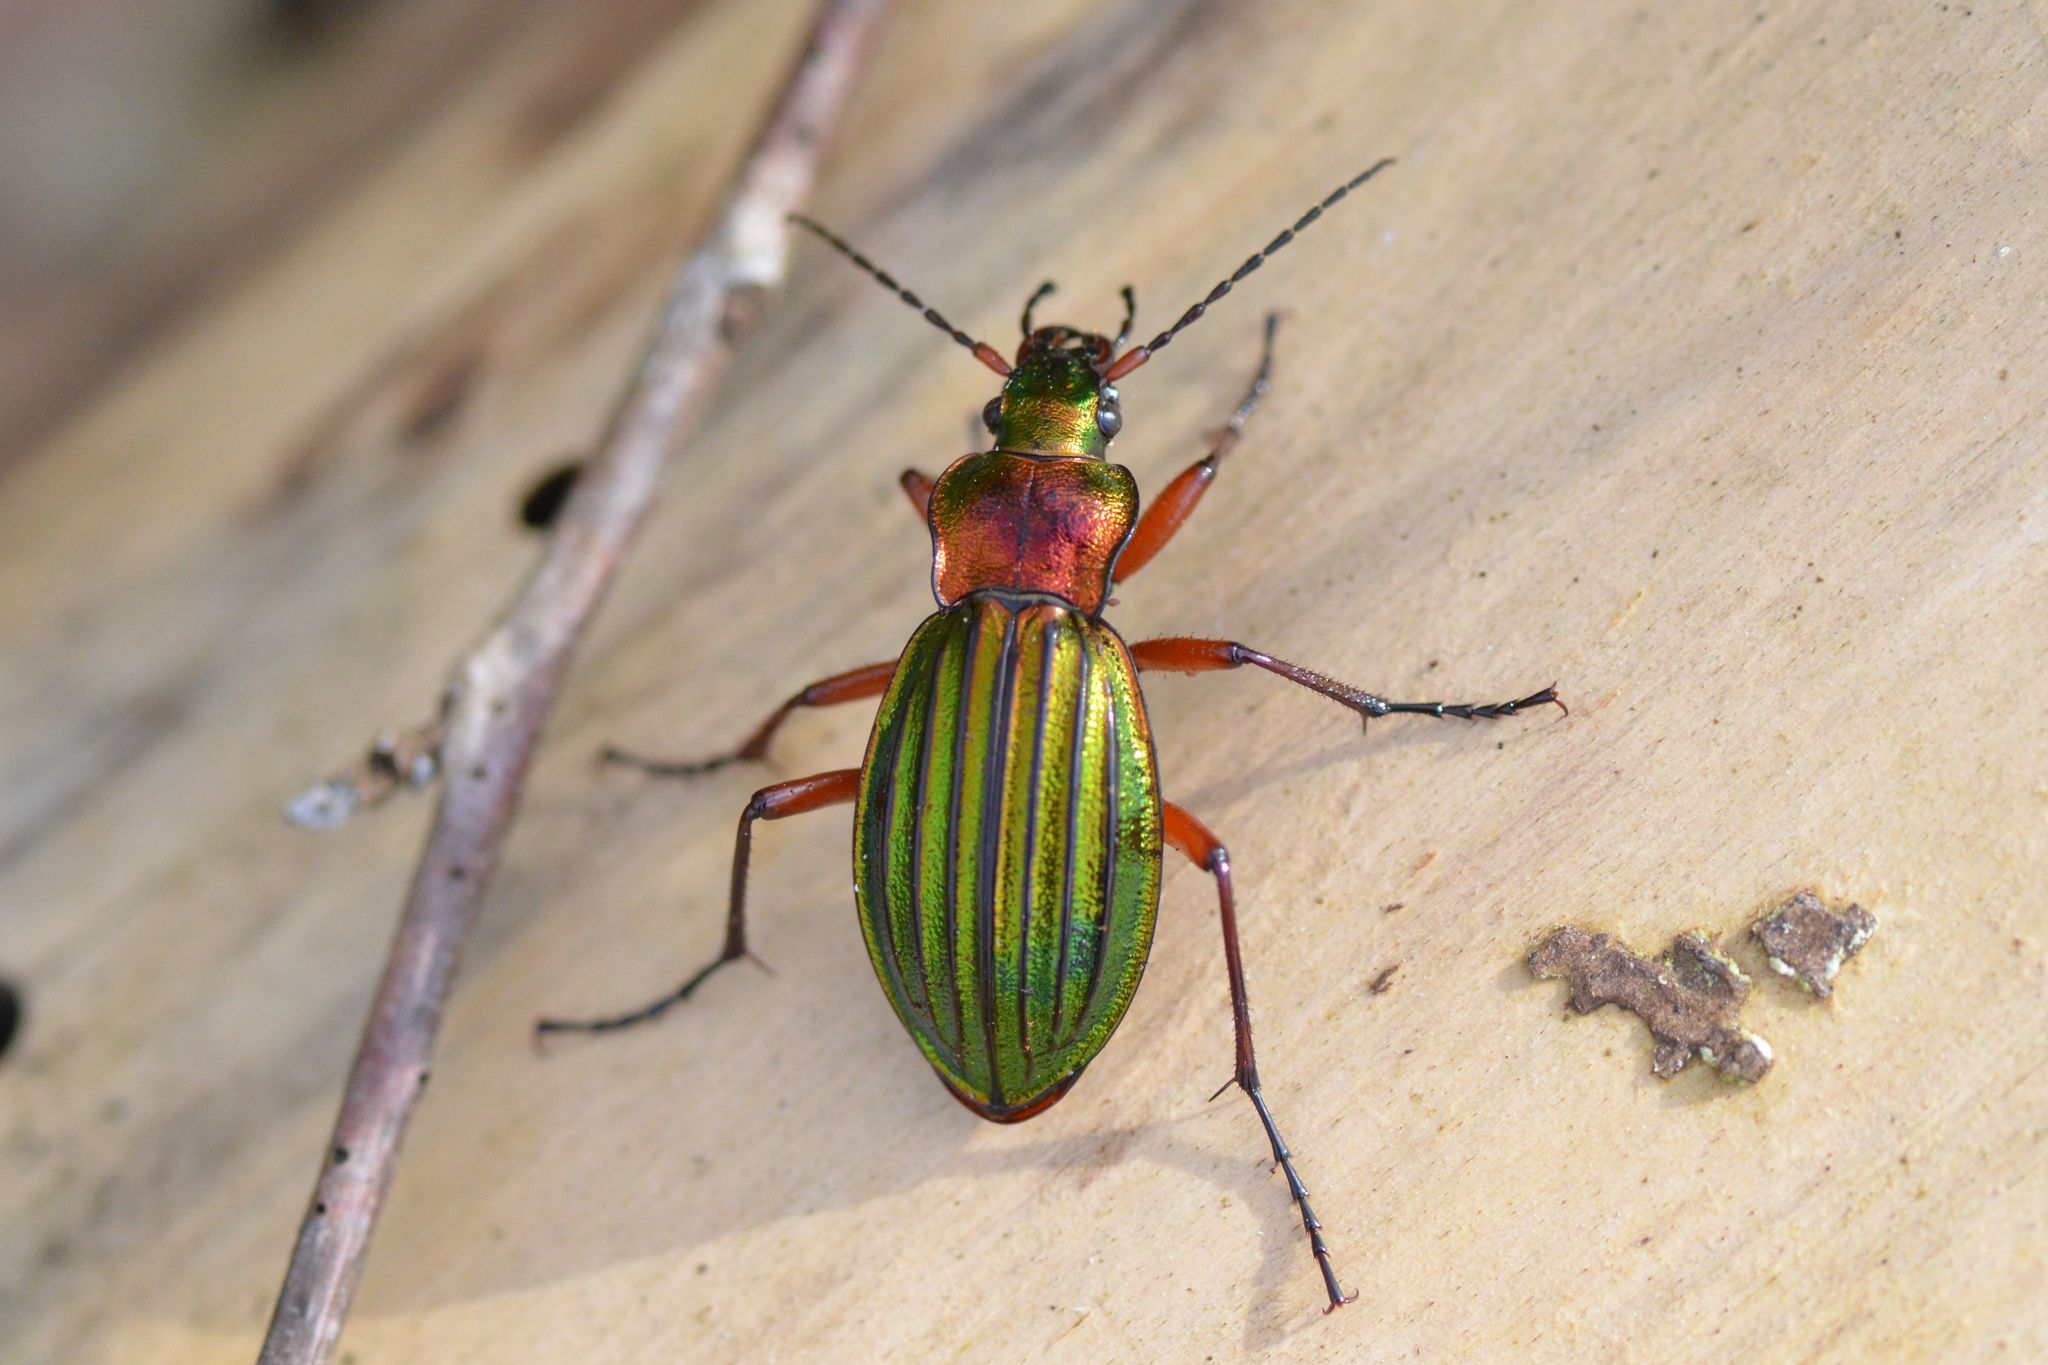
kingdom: Animalia
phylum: Arthropoda
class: Insecta
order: Coleoptera
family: Carabidae
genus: Carabus
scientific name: Carabus auronitens
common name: Carabus auronitens
